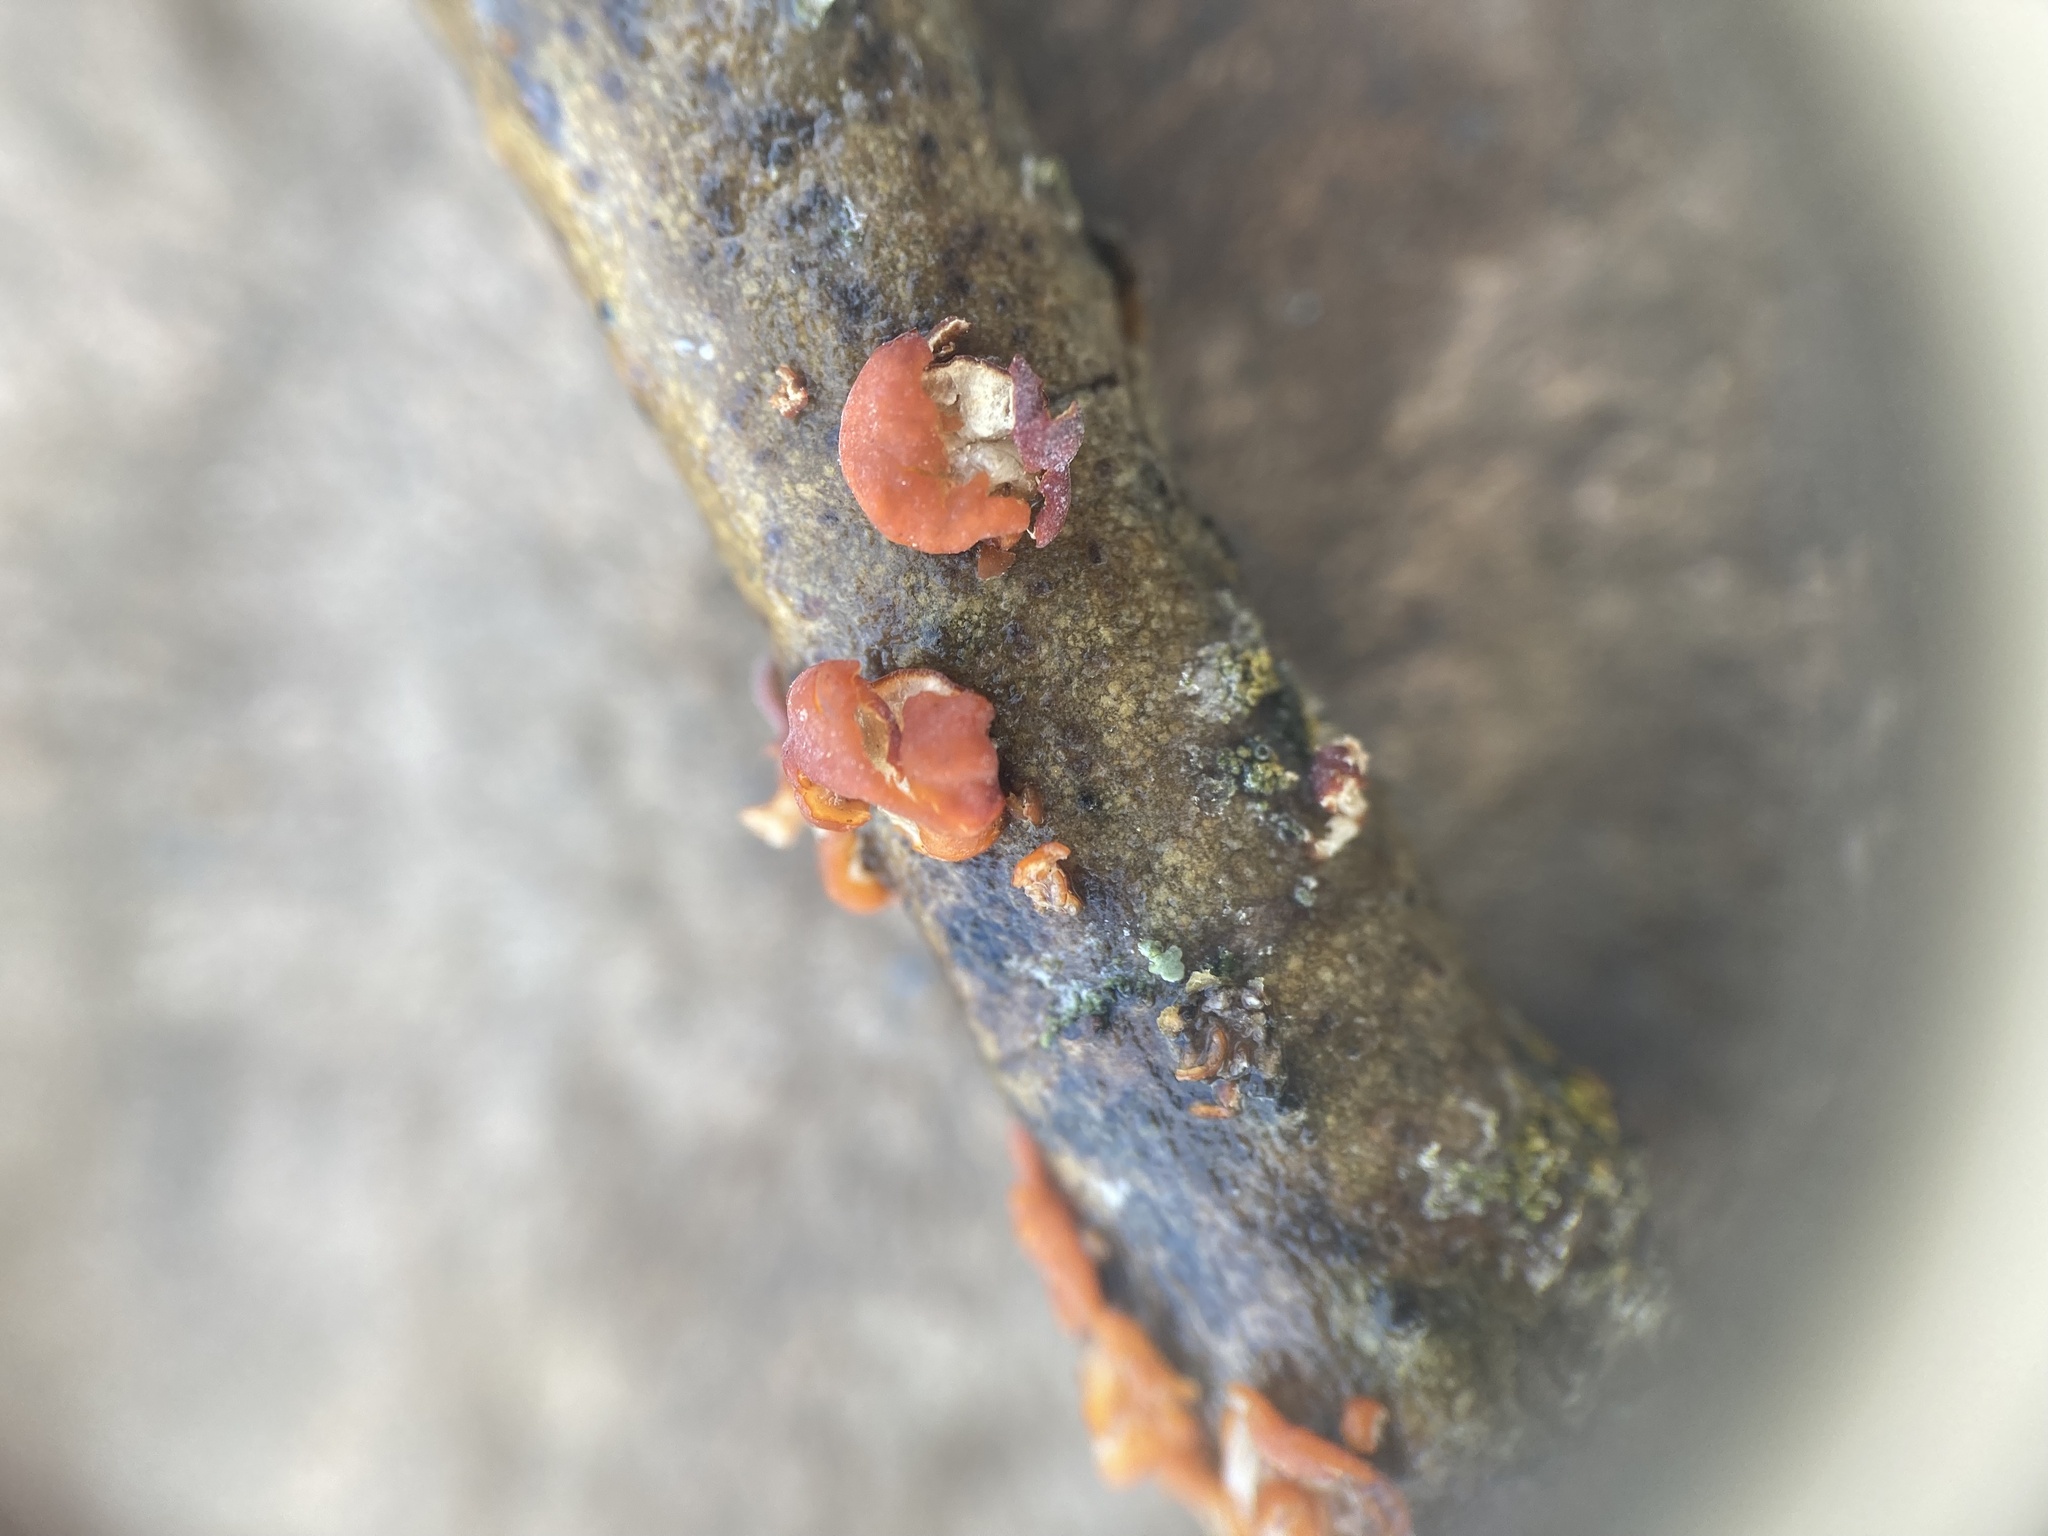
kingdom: Fungi
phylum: Basidiomycota
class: Agaricomycetes
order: Russulales
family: Peniophoraceae
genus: Peniophora
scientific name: Peniophora rufa
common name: Red tree brain fungus
